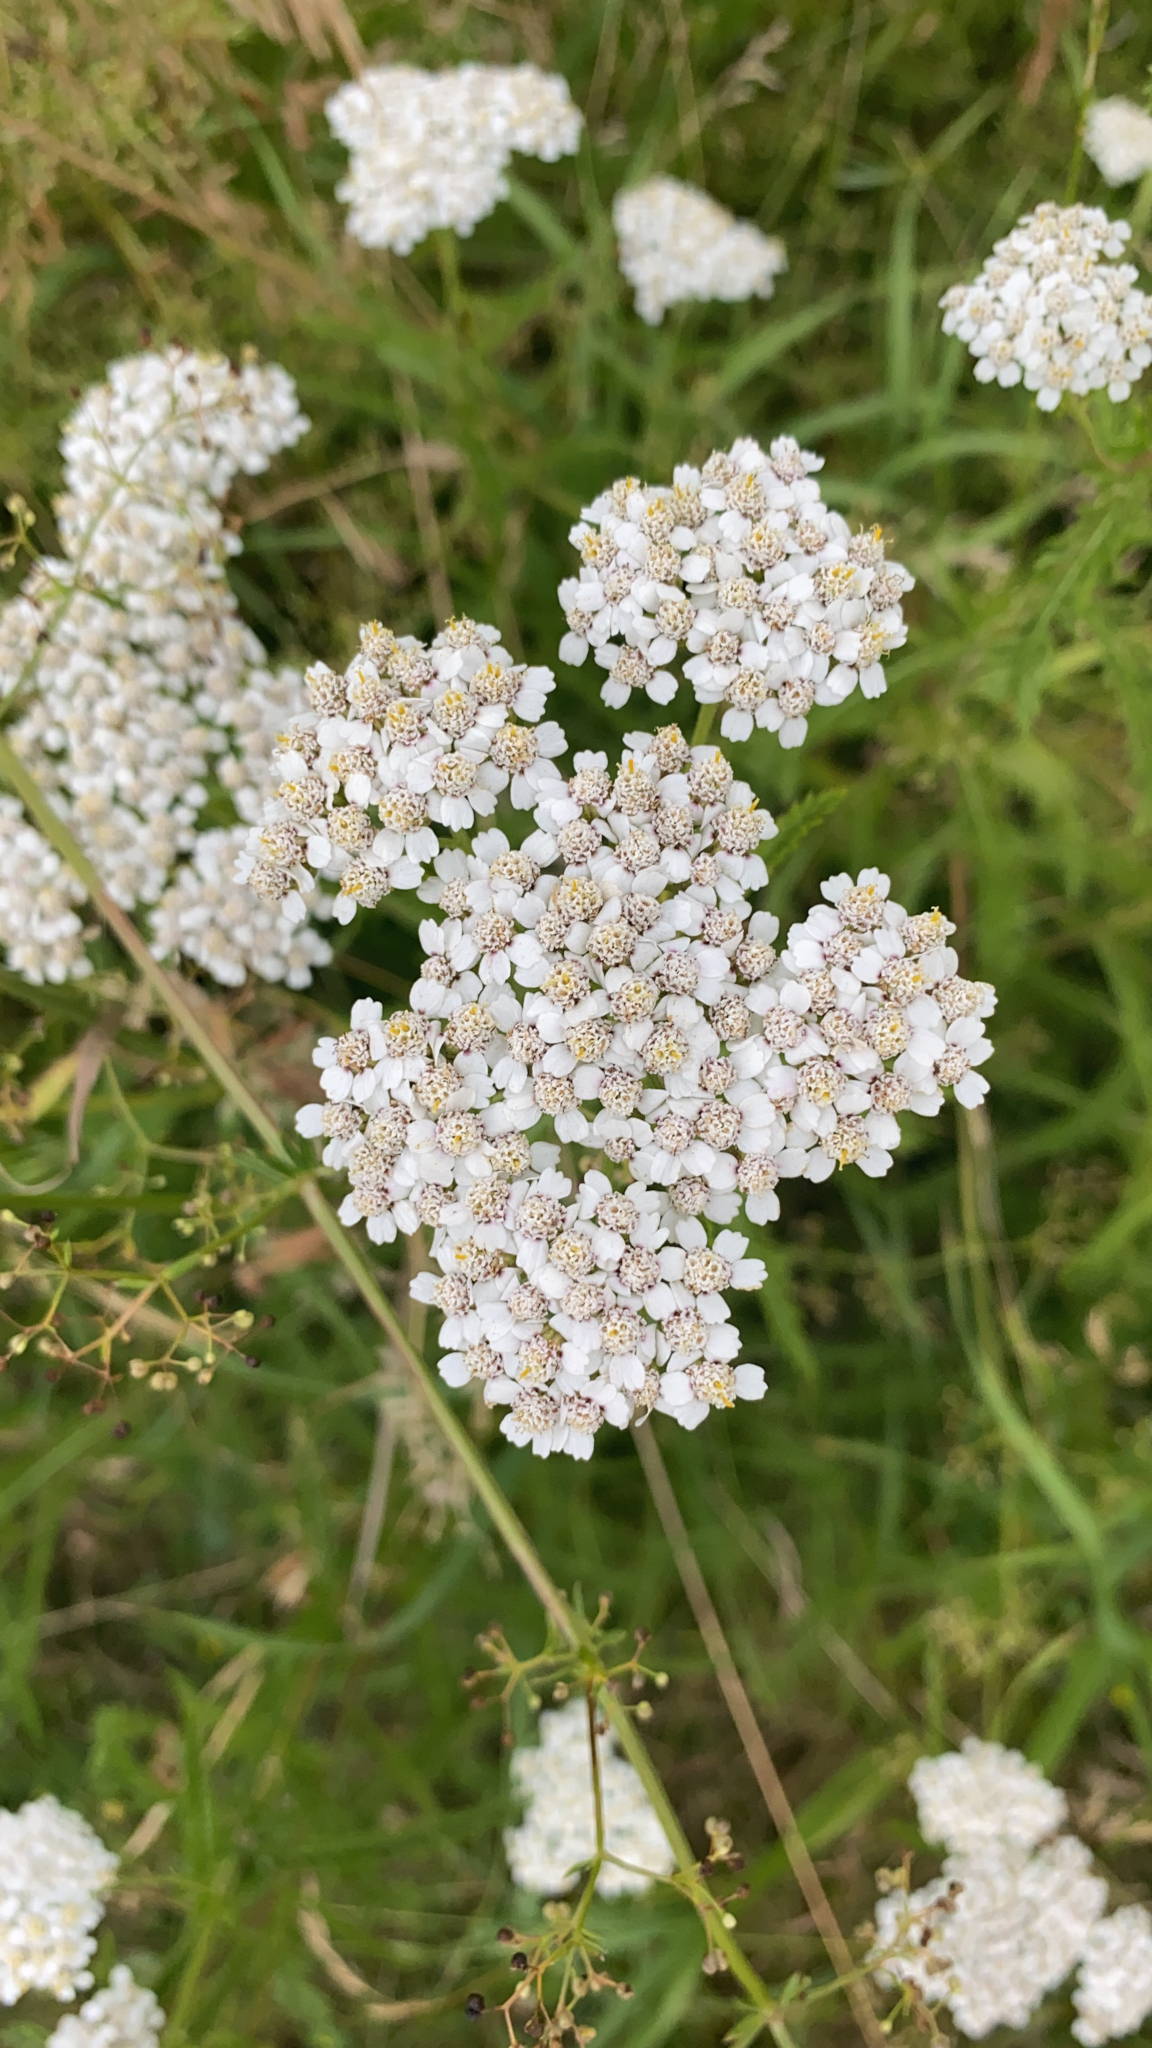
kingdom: Plantae
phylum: Tracheophyta
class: Magnoliopsida
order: Asterales
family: Asteraceae
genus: Achillea
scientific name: Achillea millefolium
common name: Yarrow
